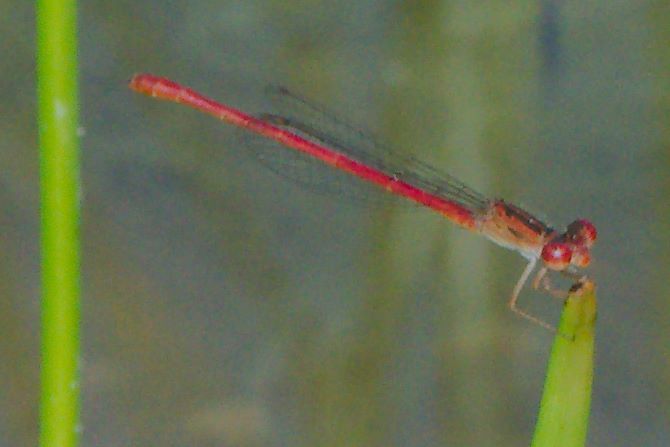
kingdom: Animalia
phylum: Arthropoda
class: Insecta
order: Odonata
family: Coenagrionidae
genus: Telebasis
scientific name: Telebasis salva
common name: Desert firetail
